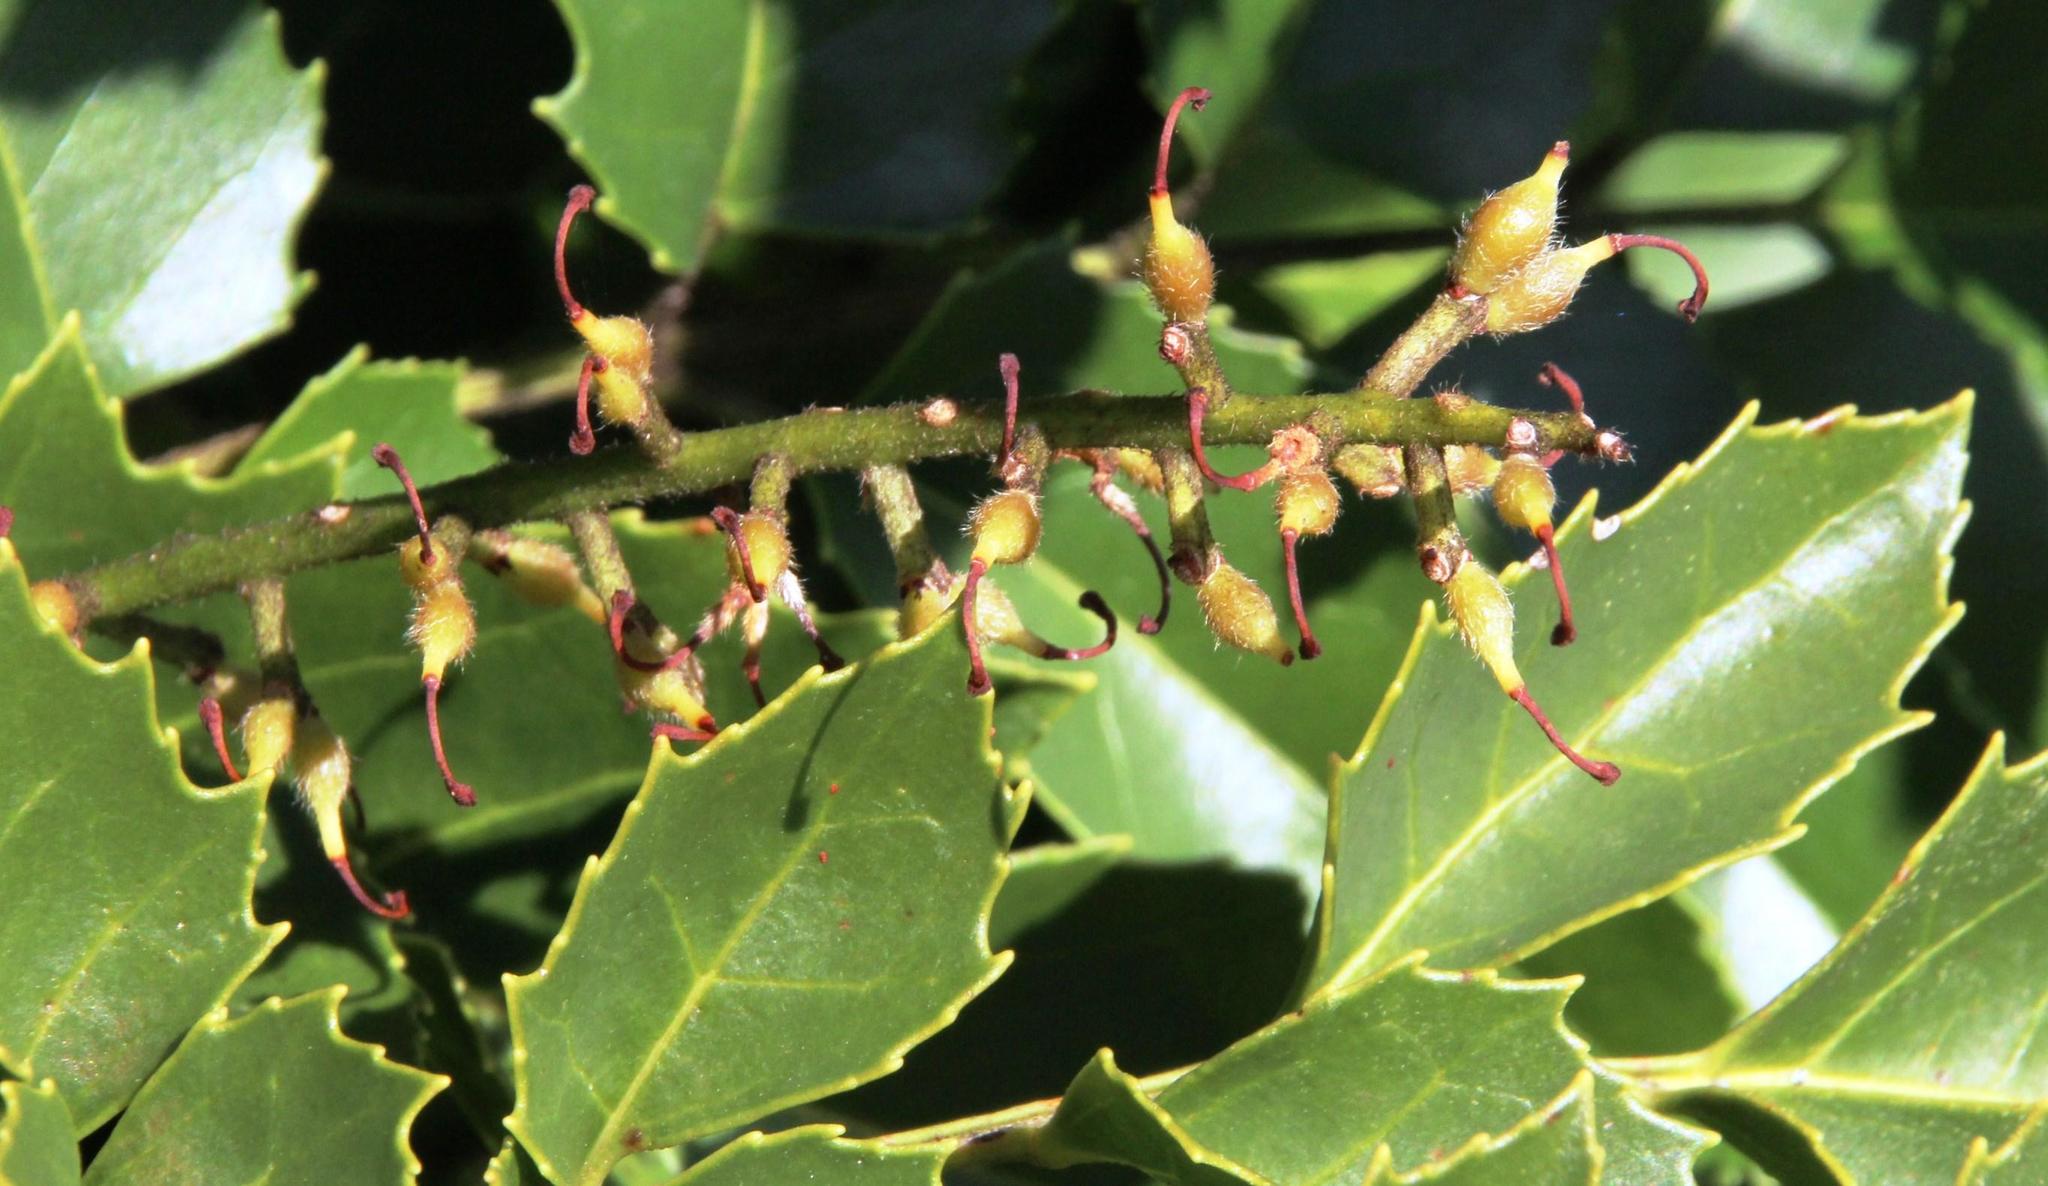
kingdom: Plantae
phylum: Tracheophyta
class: Magnoliopsida
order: Proteales
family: Proteaceae
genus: Gevuina
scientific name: Gevuina avellana
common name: Chilean hazel
